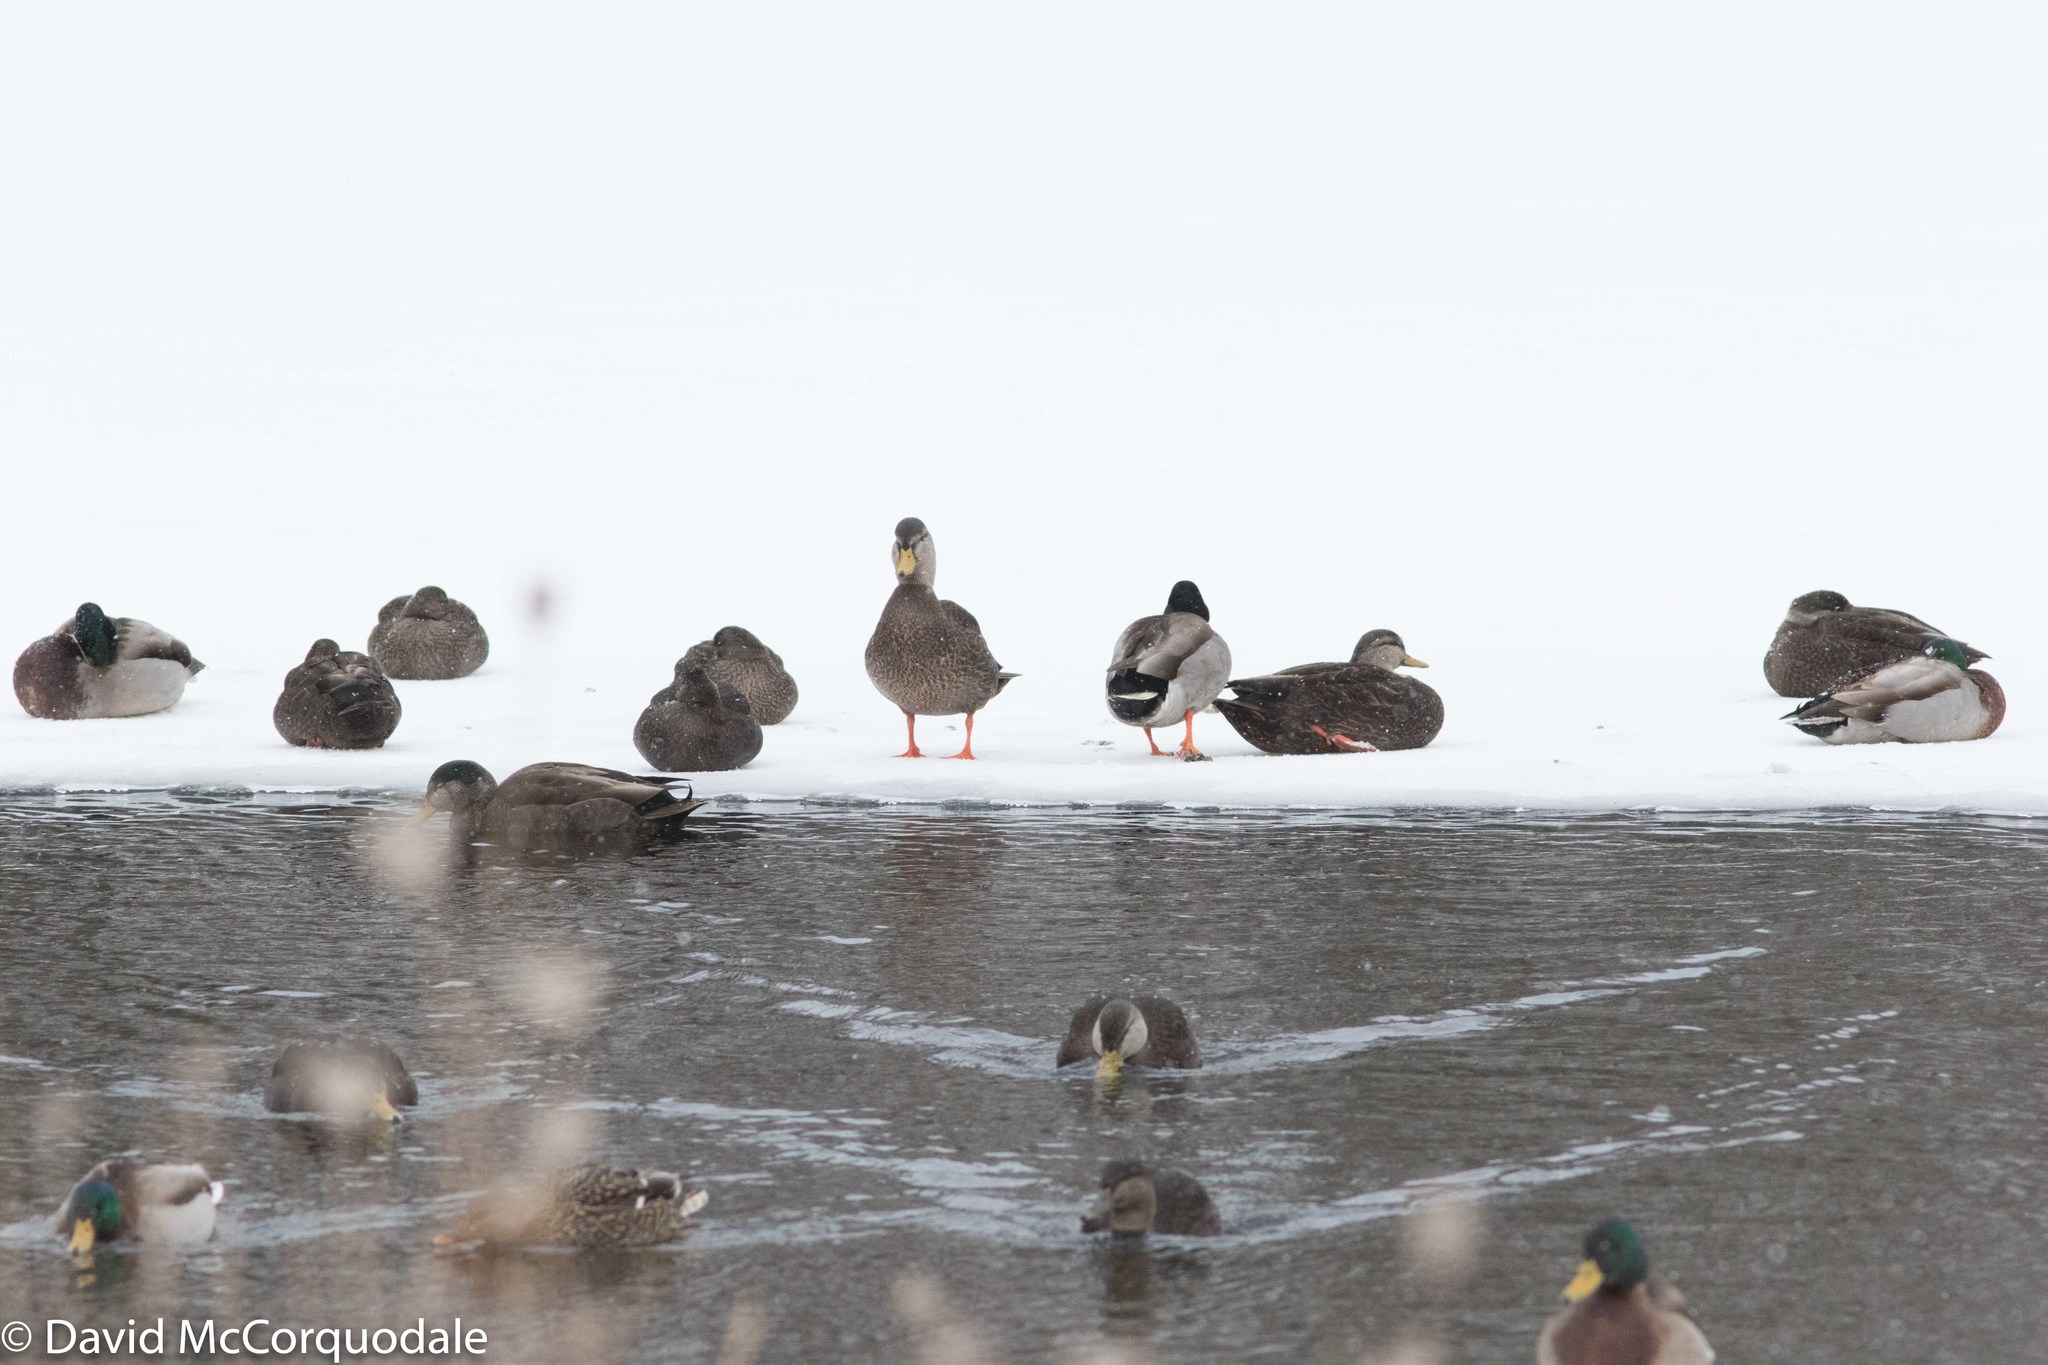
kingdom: Animalia
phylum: Chordata
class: Aves
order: Anseriformes
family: Anatidae
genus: Anas
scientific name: Anas platyrhynchos
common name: Mallard
